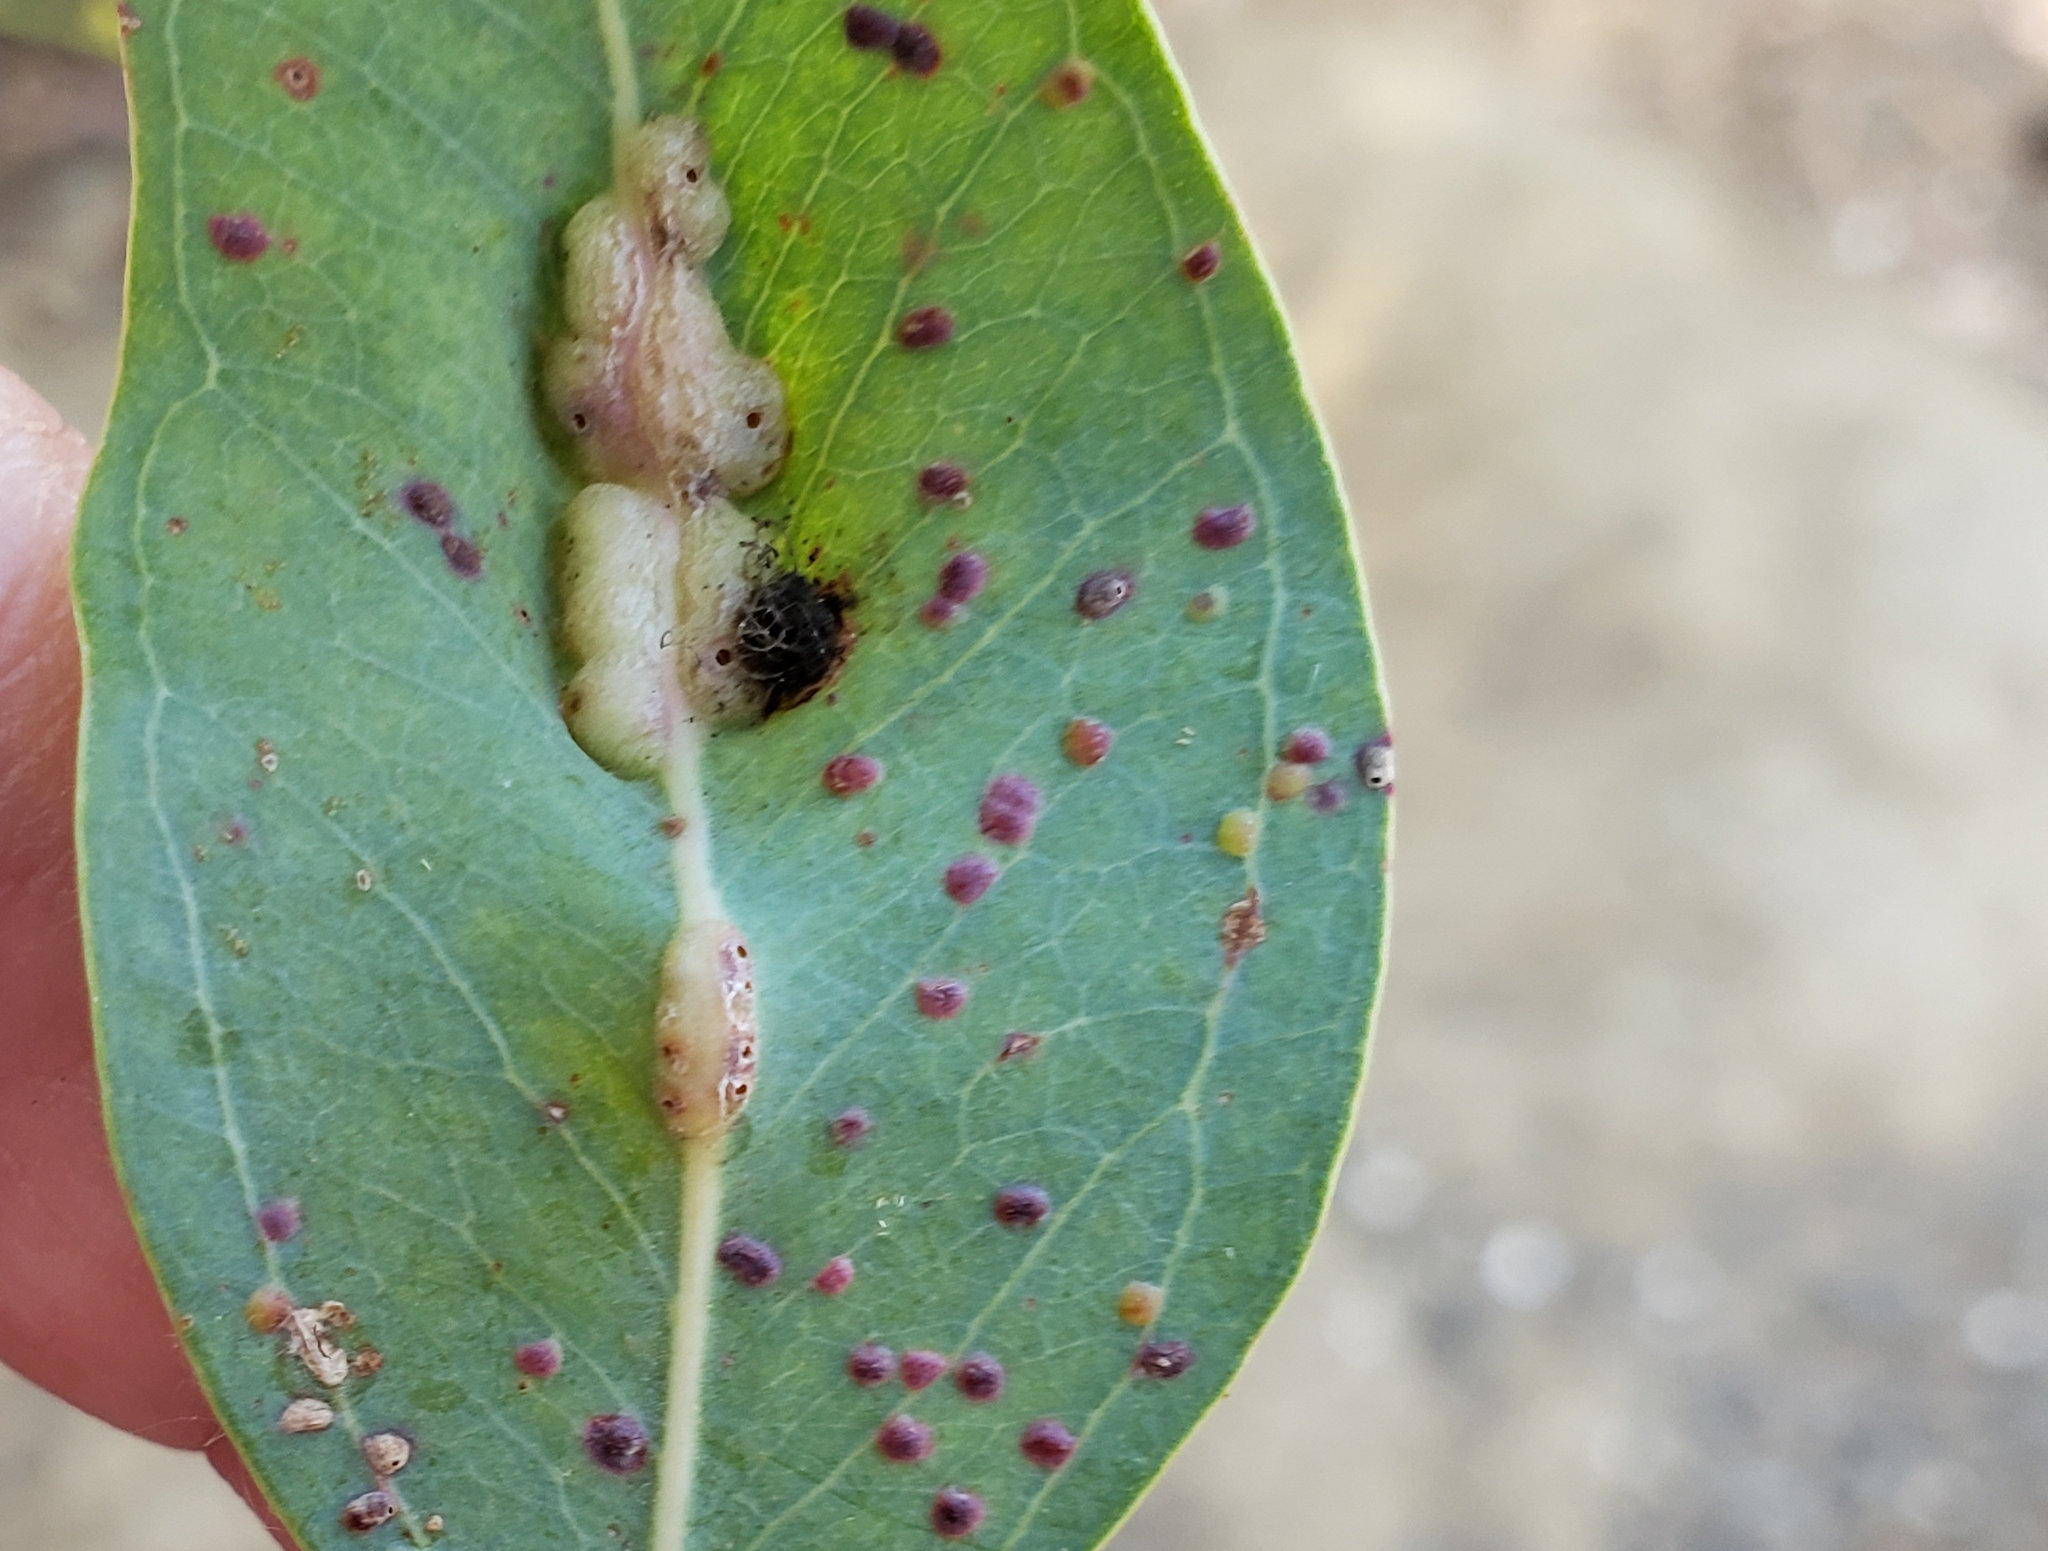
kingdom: Animalia
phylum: Arthropoda
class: Insecta
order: Hymenoptera
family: Eulophidae
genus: Leptocybe
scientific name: Leptocybe invasa
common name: Gall wasp
